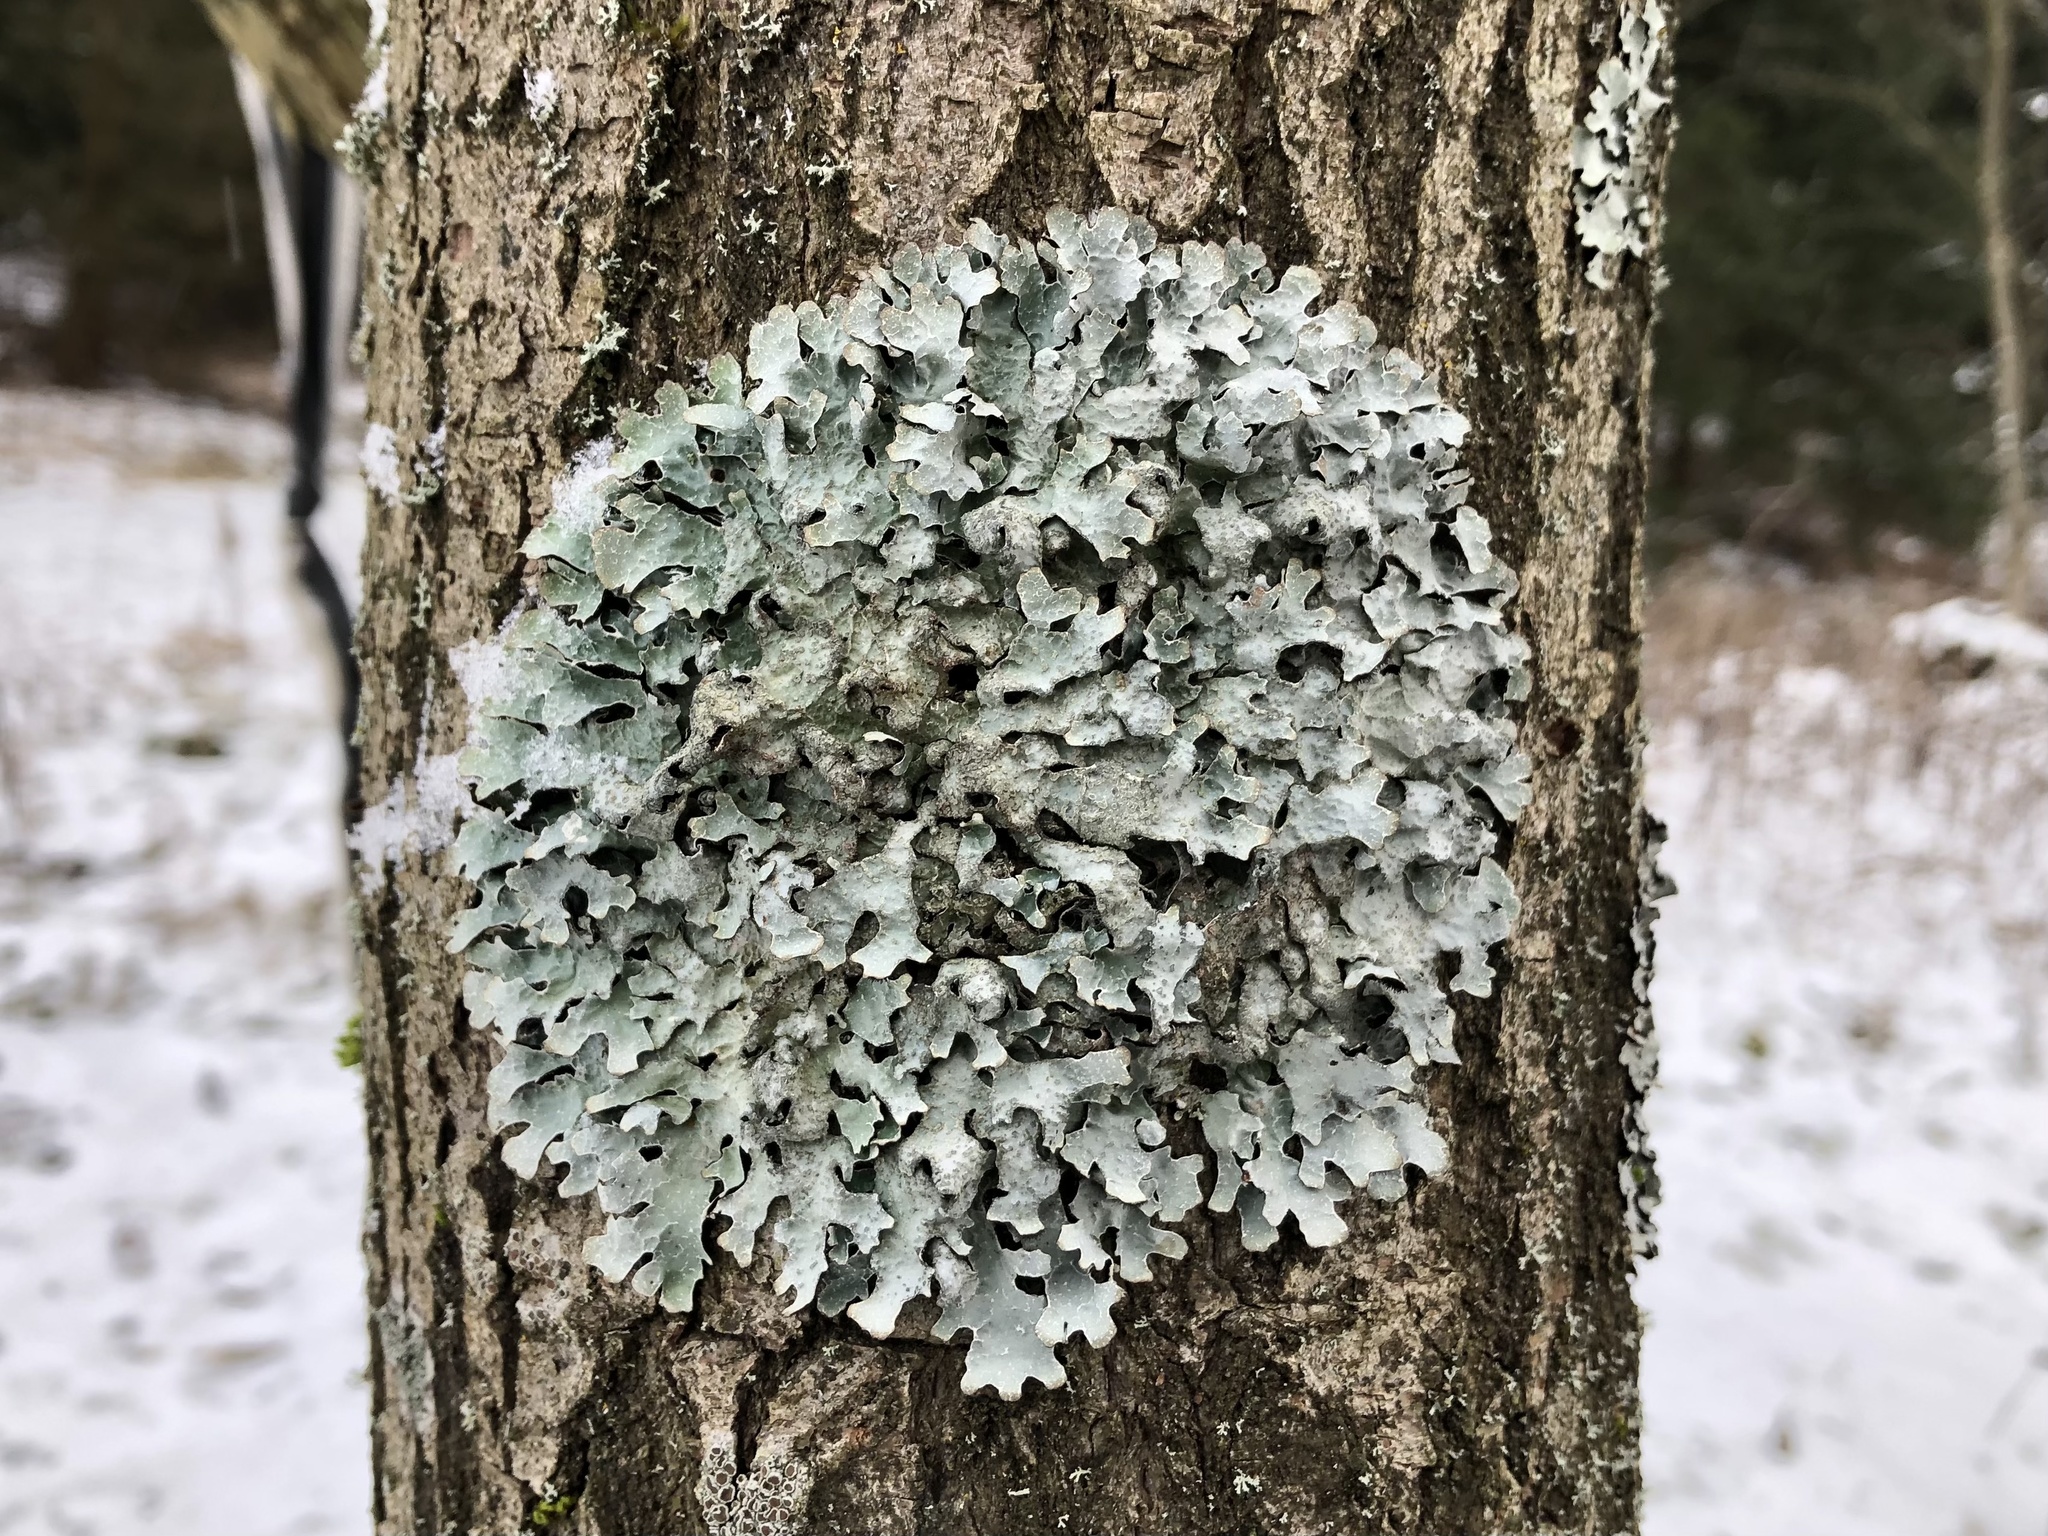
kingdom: Fungi
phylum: Ascomycota
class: Lecanoromycetes
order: Lecanorales
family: Parmeliaceae
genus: Parmelia
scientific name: Parmelia sulcata
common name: Netted shield lichen
